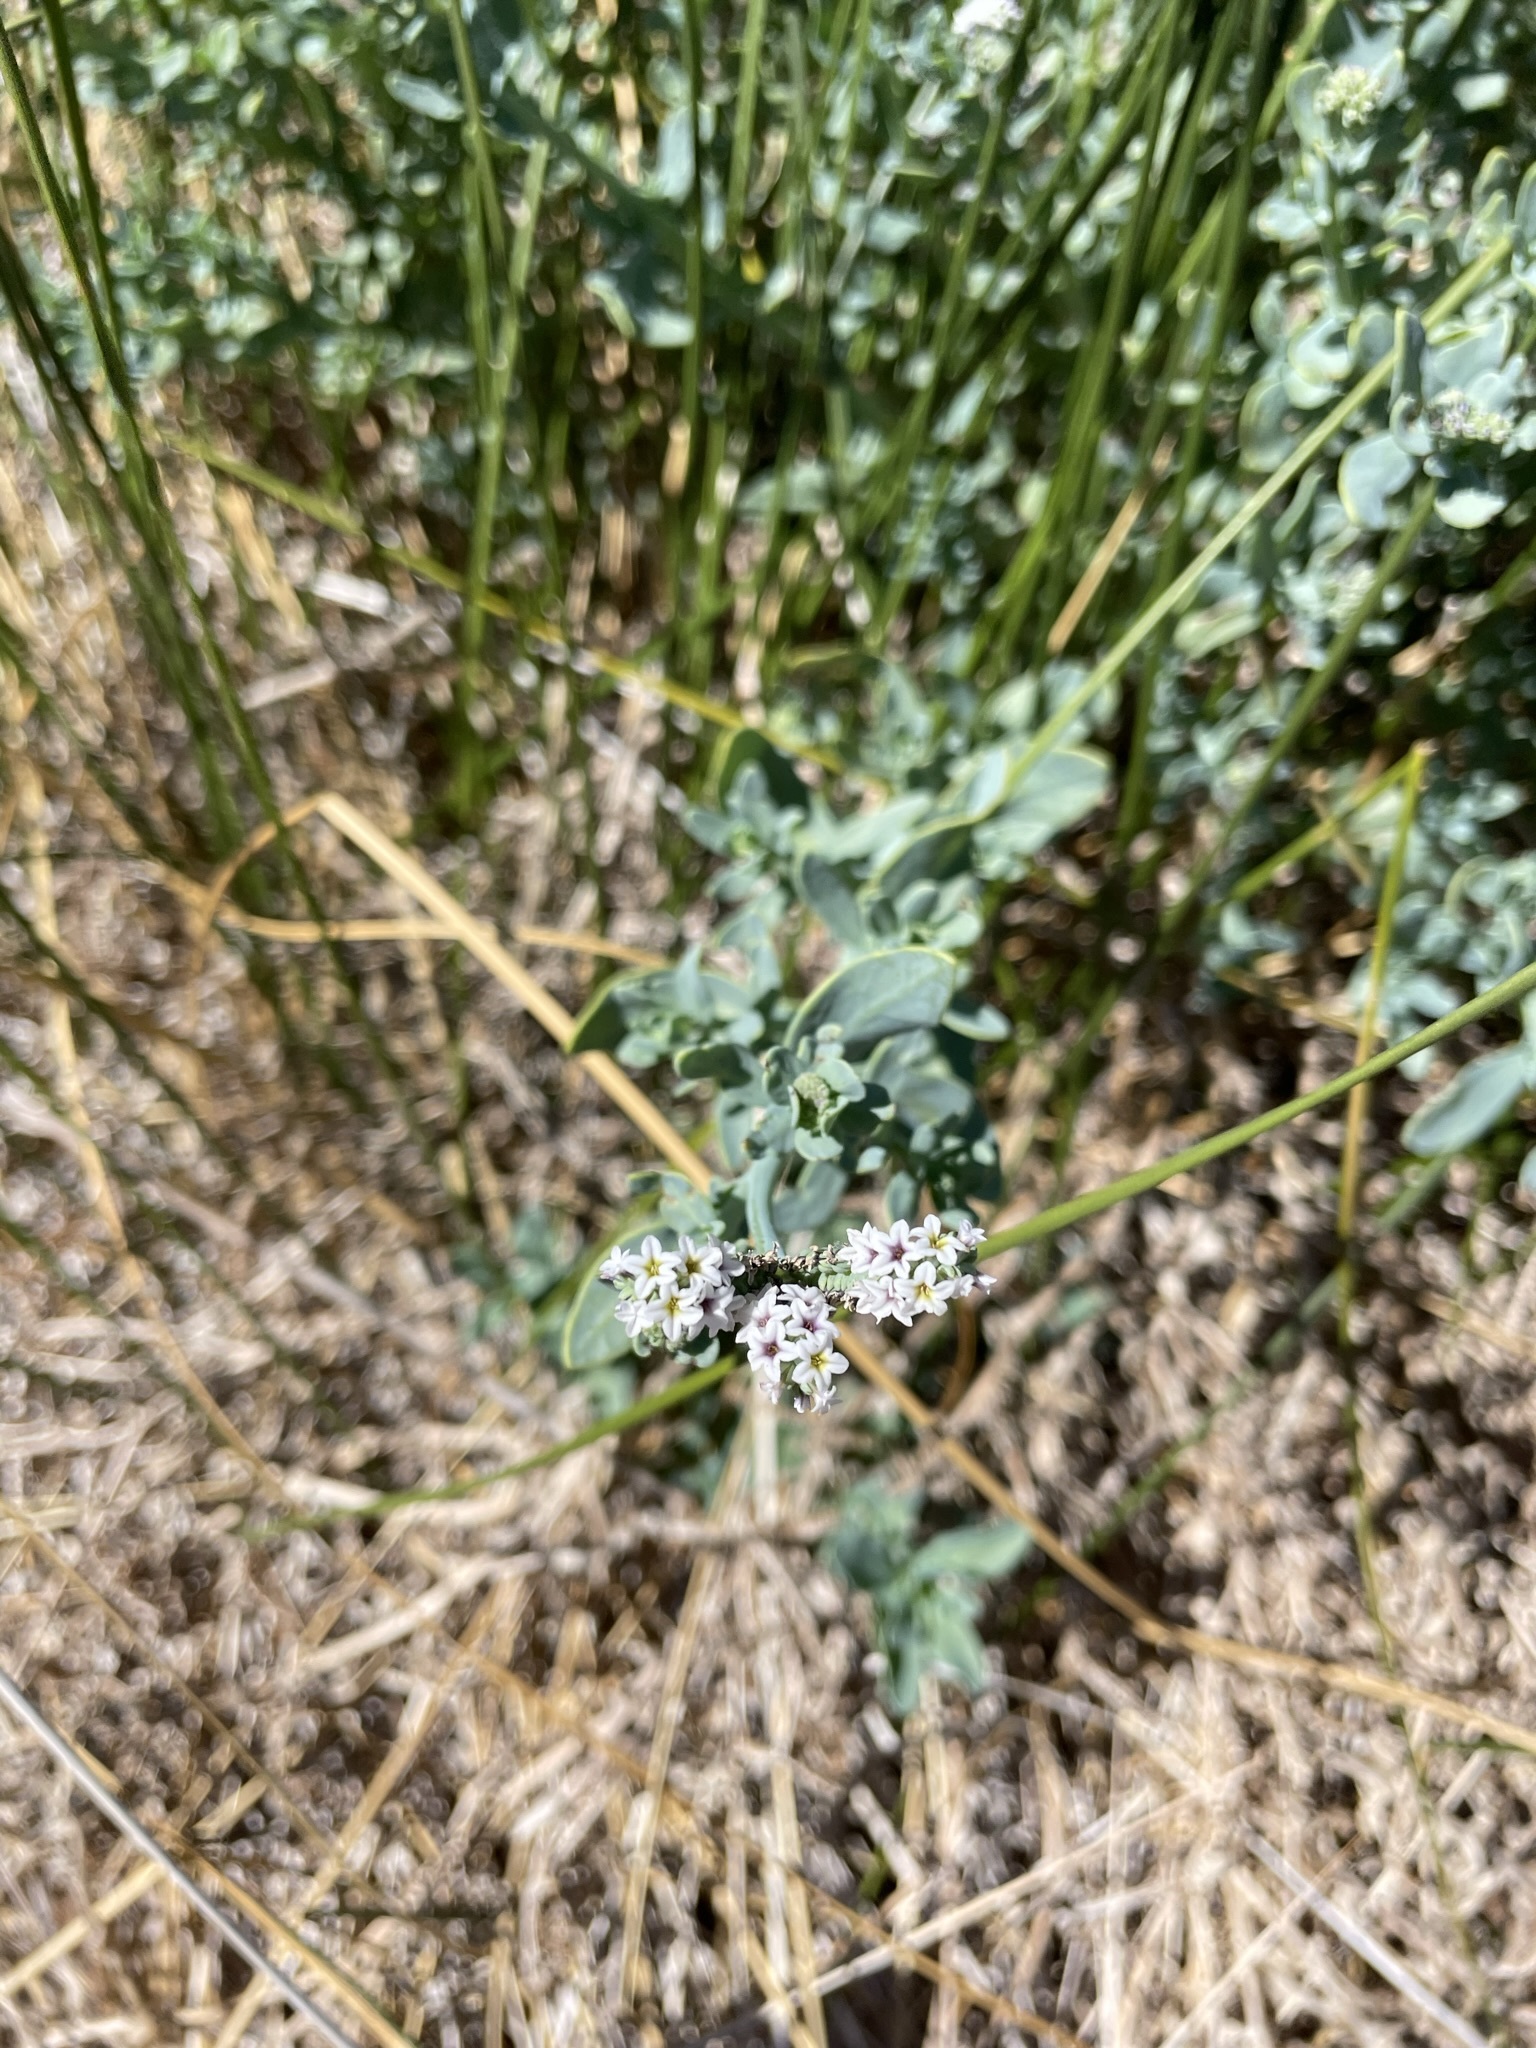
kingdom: Plantae
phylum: Tracheophyta
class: Magnoliopsida
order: Boraginales
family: Heliotropiaceae
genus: Heliotropium
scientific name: Heliotropium curassavicum
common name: Seaside heliotrope
